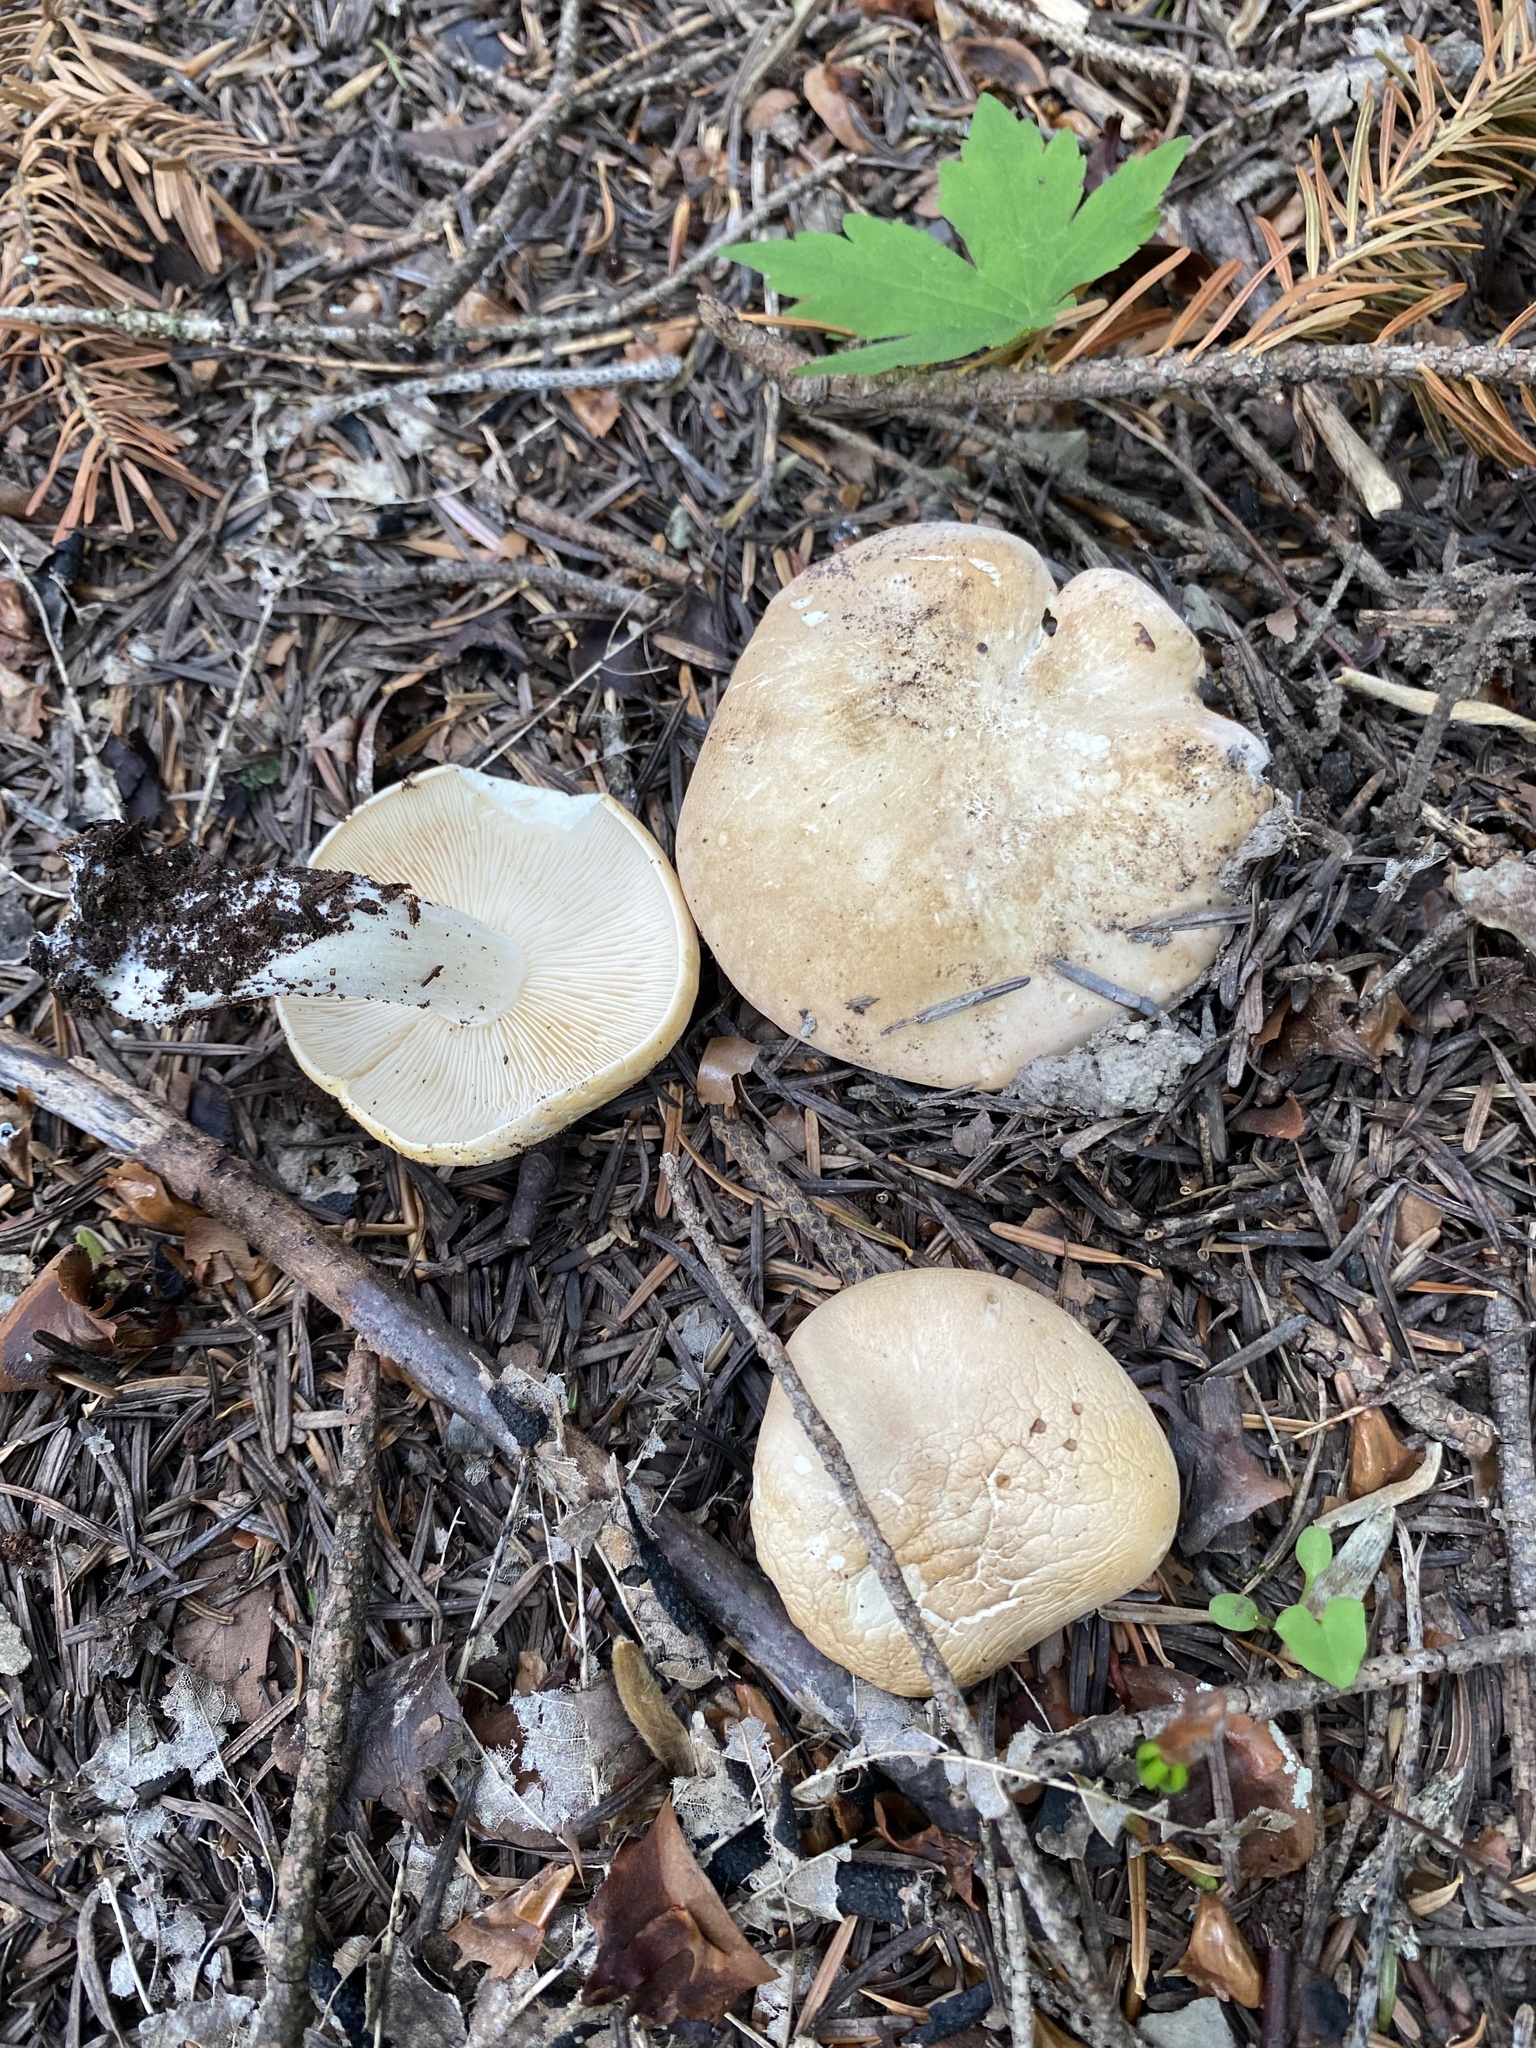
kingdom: Fungi
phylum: Basidiomycota
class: Agaricomycetes
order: Agaricales
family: Lyophyllaceae
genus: Calocybe
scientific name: Calocybe gambosa
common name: St. george's mushroom
